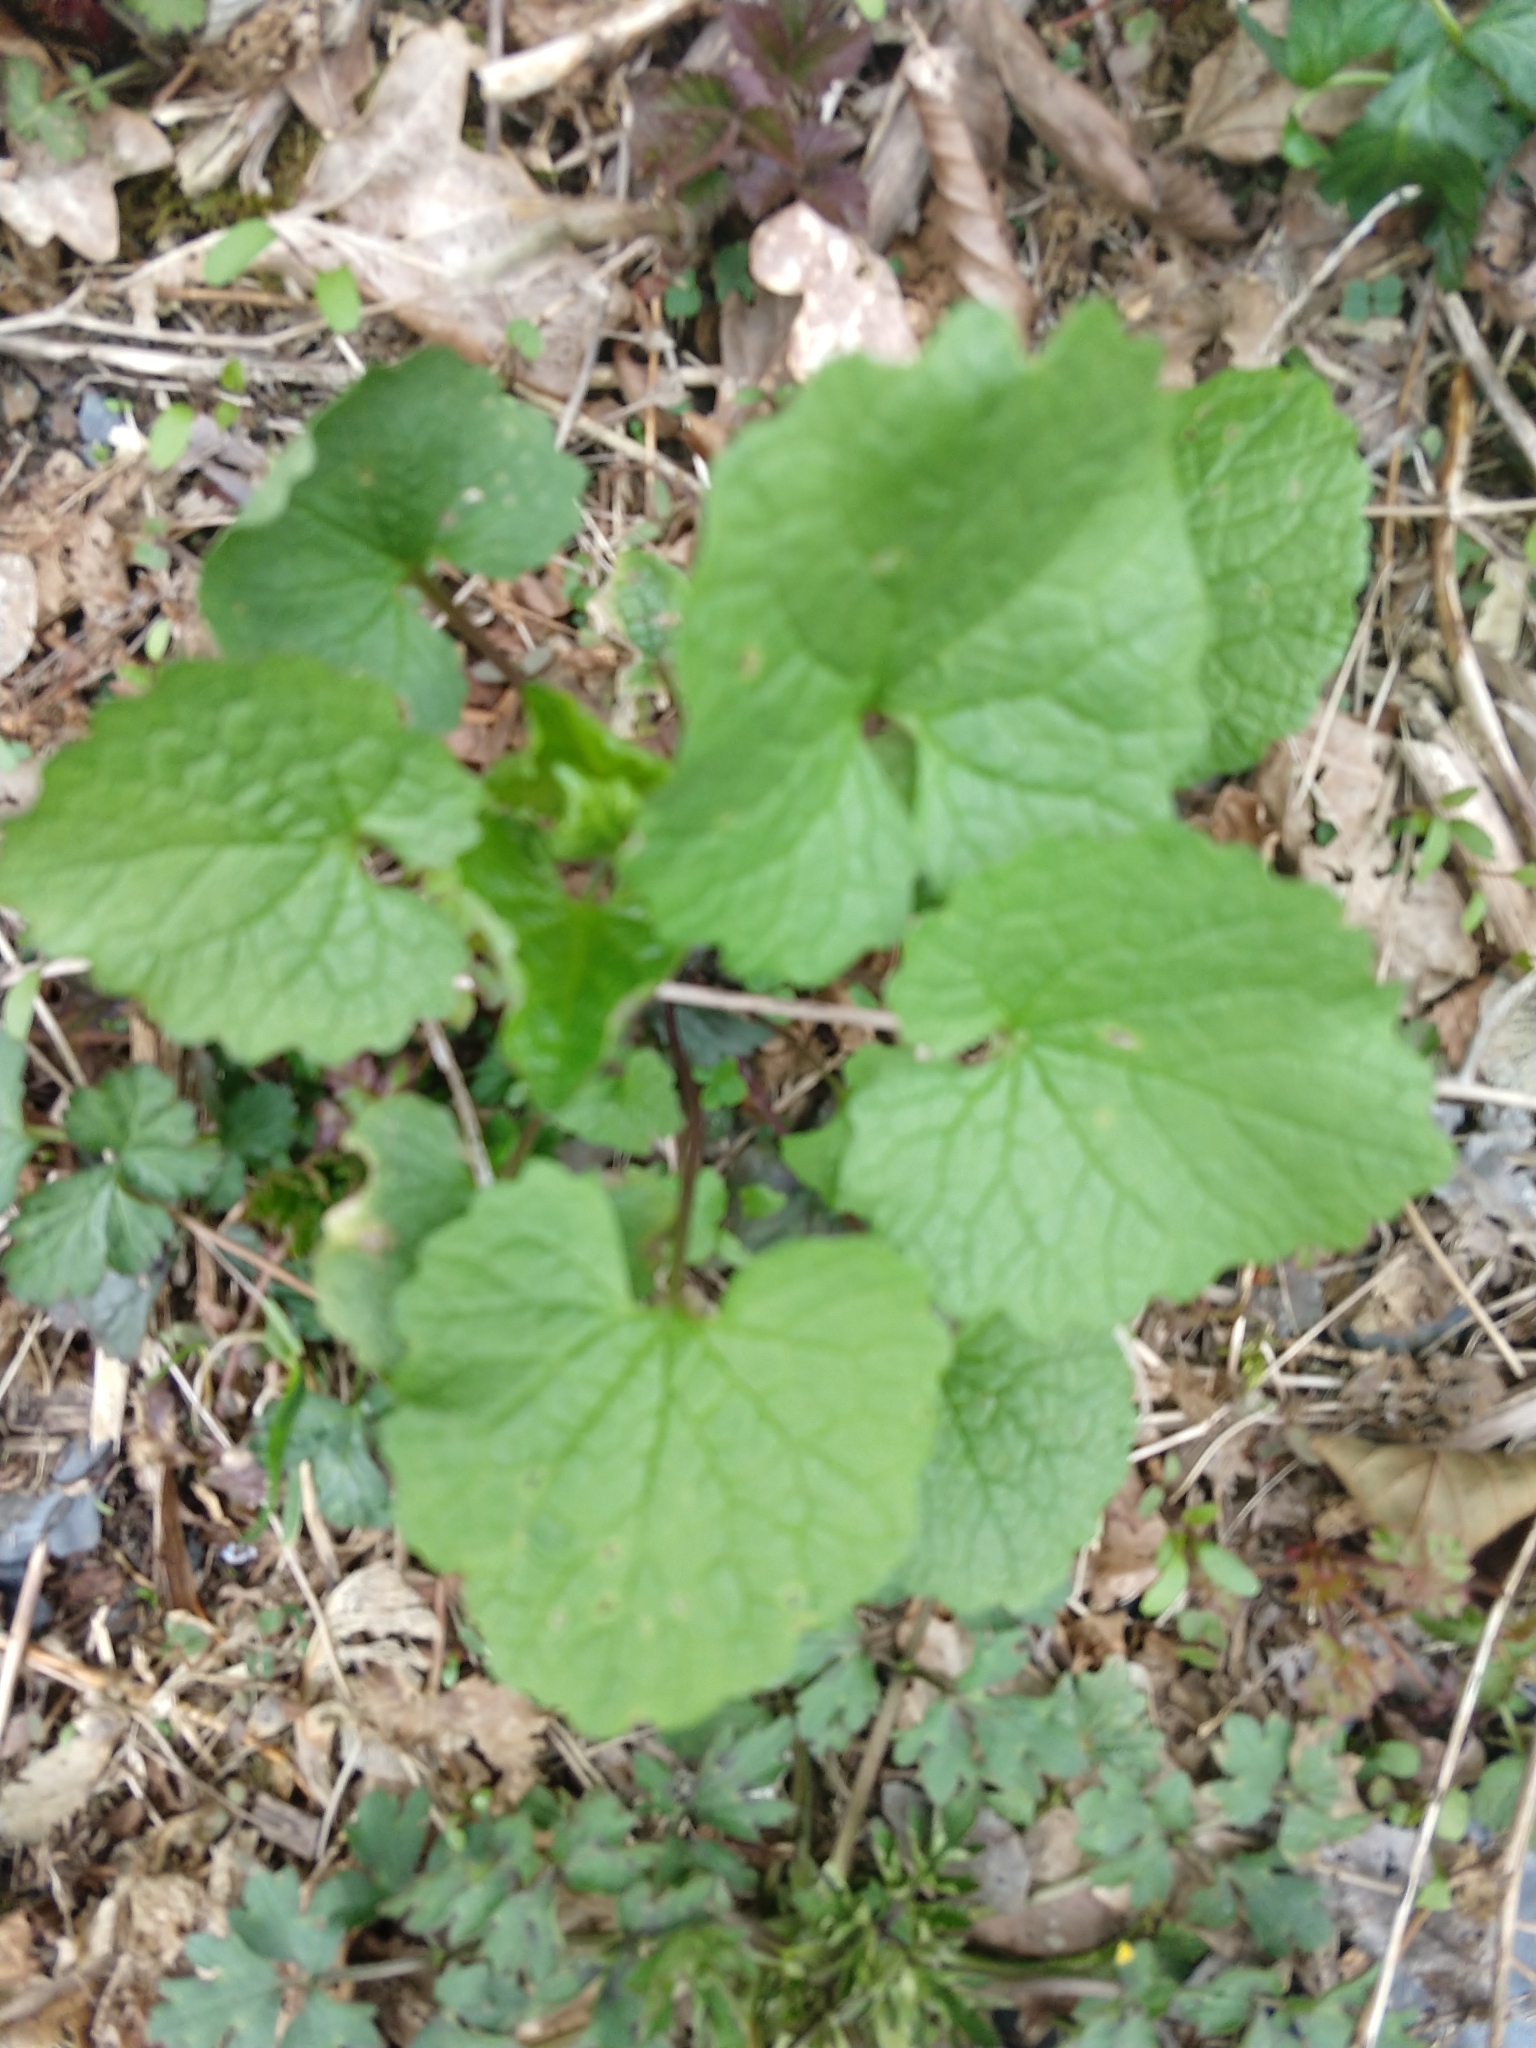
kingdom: Plantae
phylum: Tracheophyta
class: Magnoliopsida
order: Brassicales
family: Brassicaceae
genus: Alliaria
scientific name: Alliaria petiolata
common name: Garlic mustard
